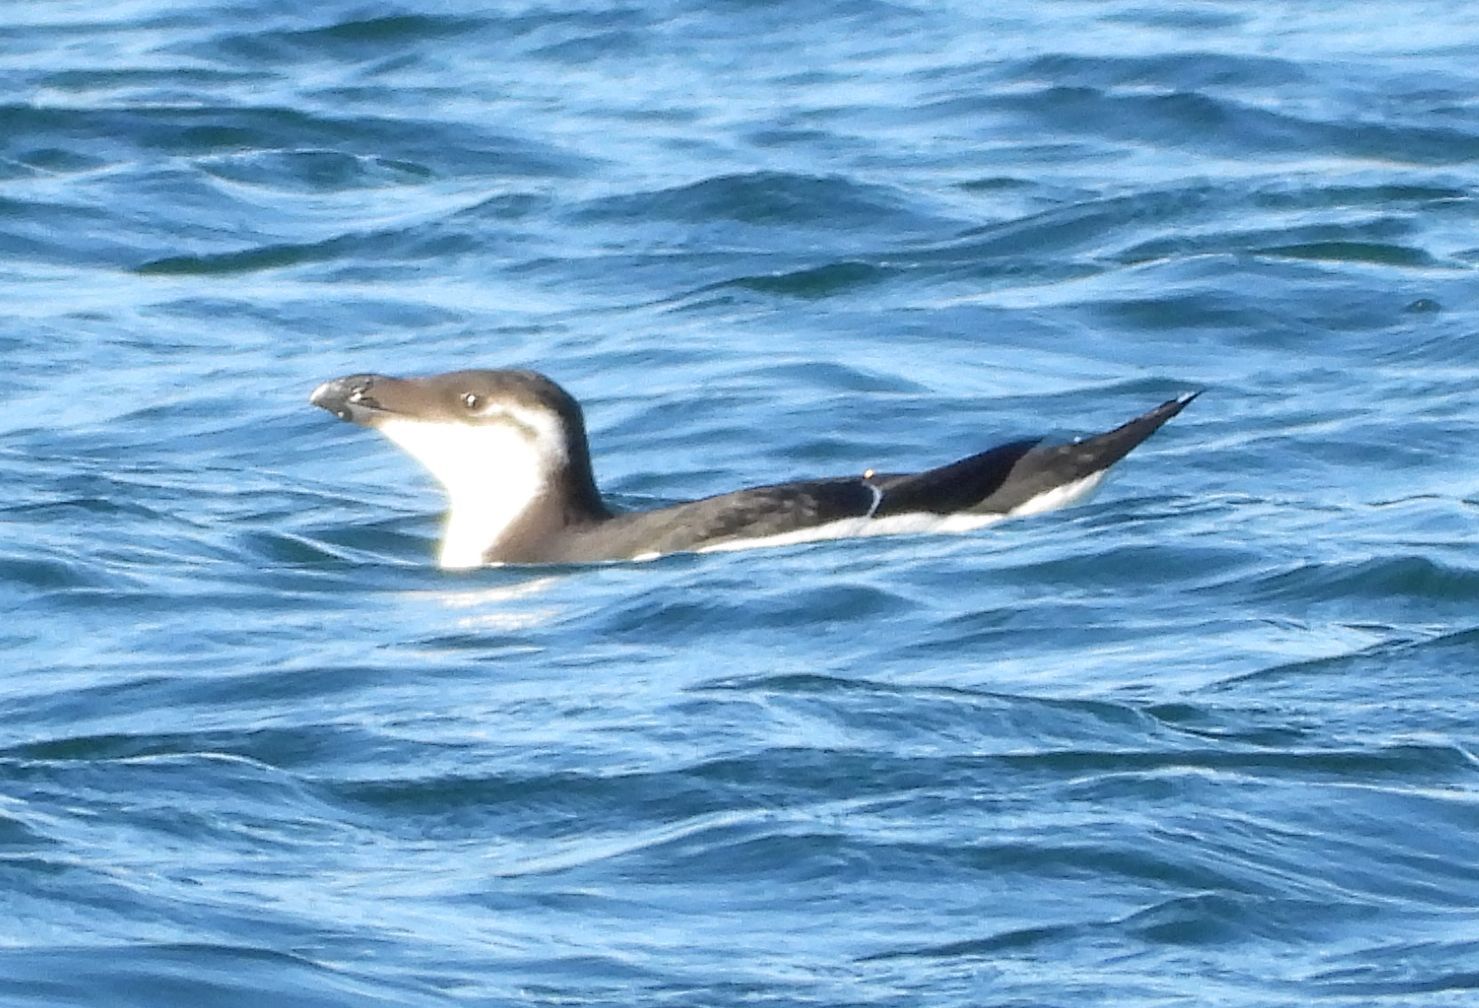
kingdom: Animalia
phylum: Chordata
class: Aves
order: Charadriiformes
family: Alcidae
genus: Alca
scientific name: Alca torda
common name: Razorbill
